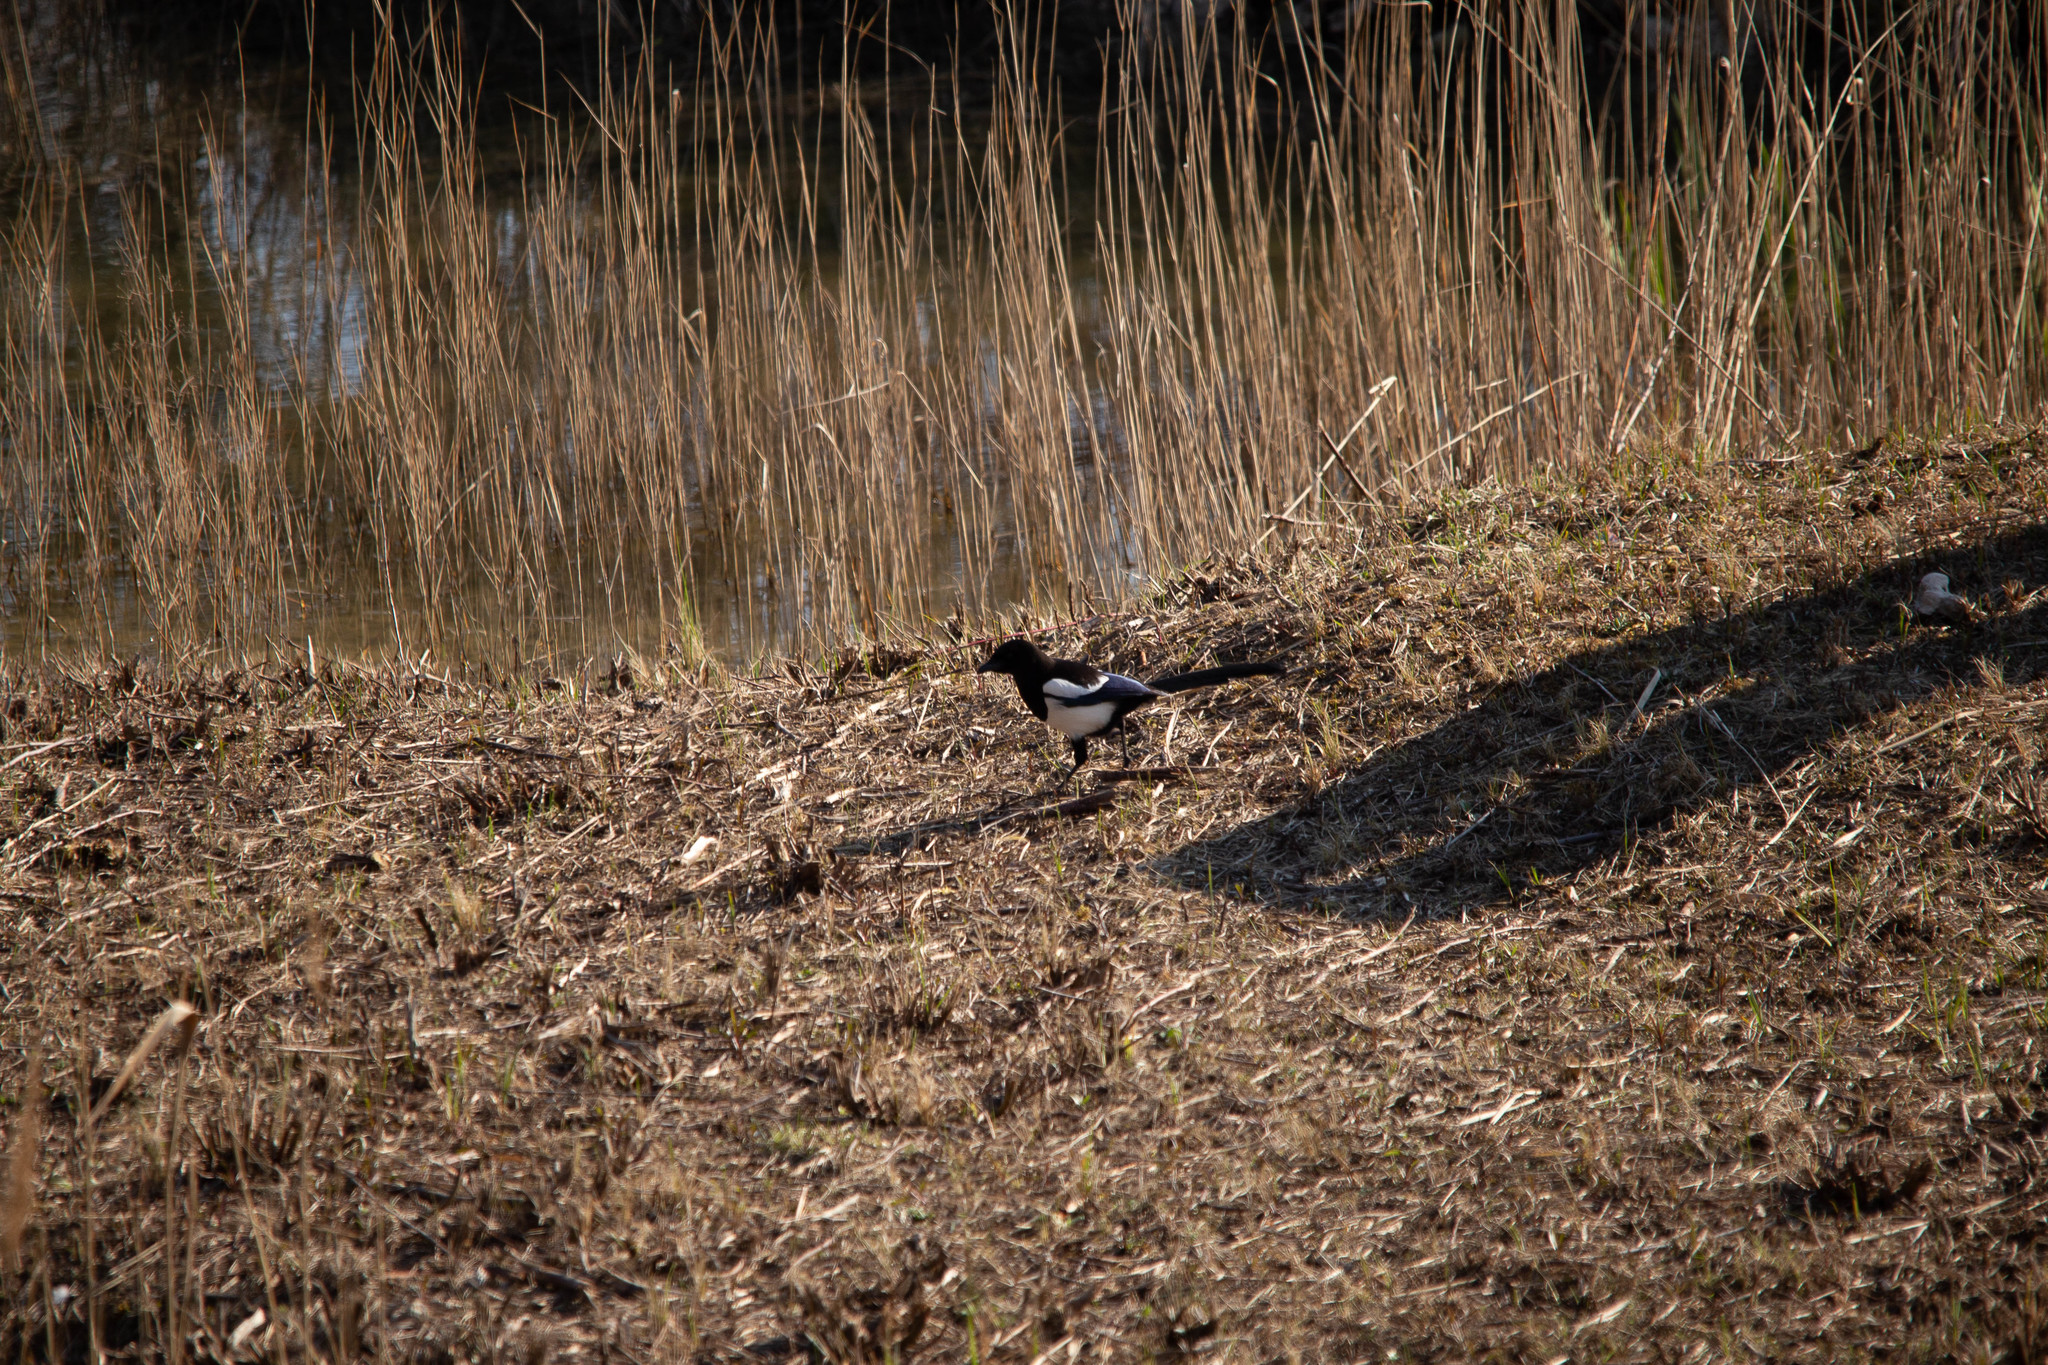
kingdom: Animalia
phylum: Chordata
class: Aves
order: Passeriformes
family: Corvidae
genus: Pica
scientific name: Pica pica
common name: Eurasian magpie
